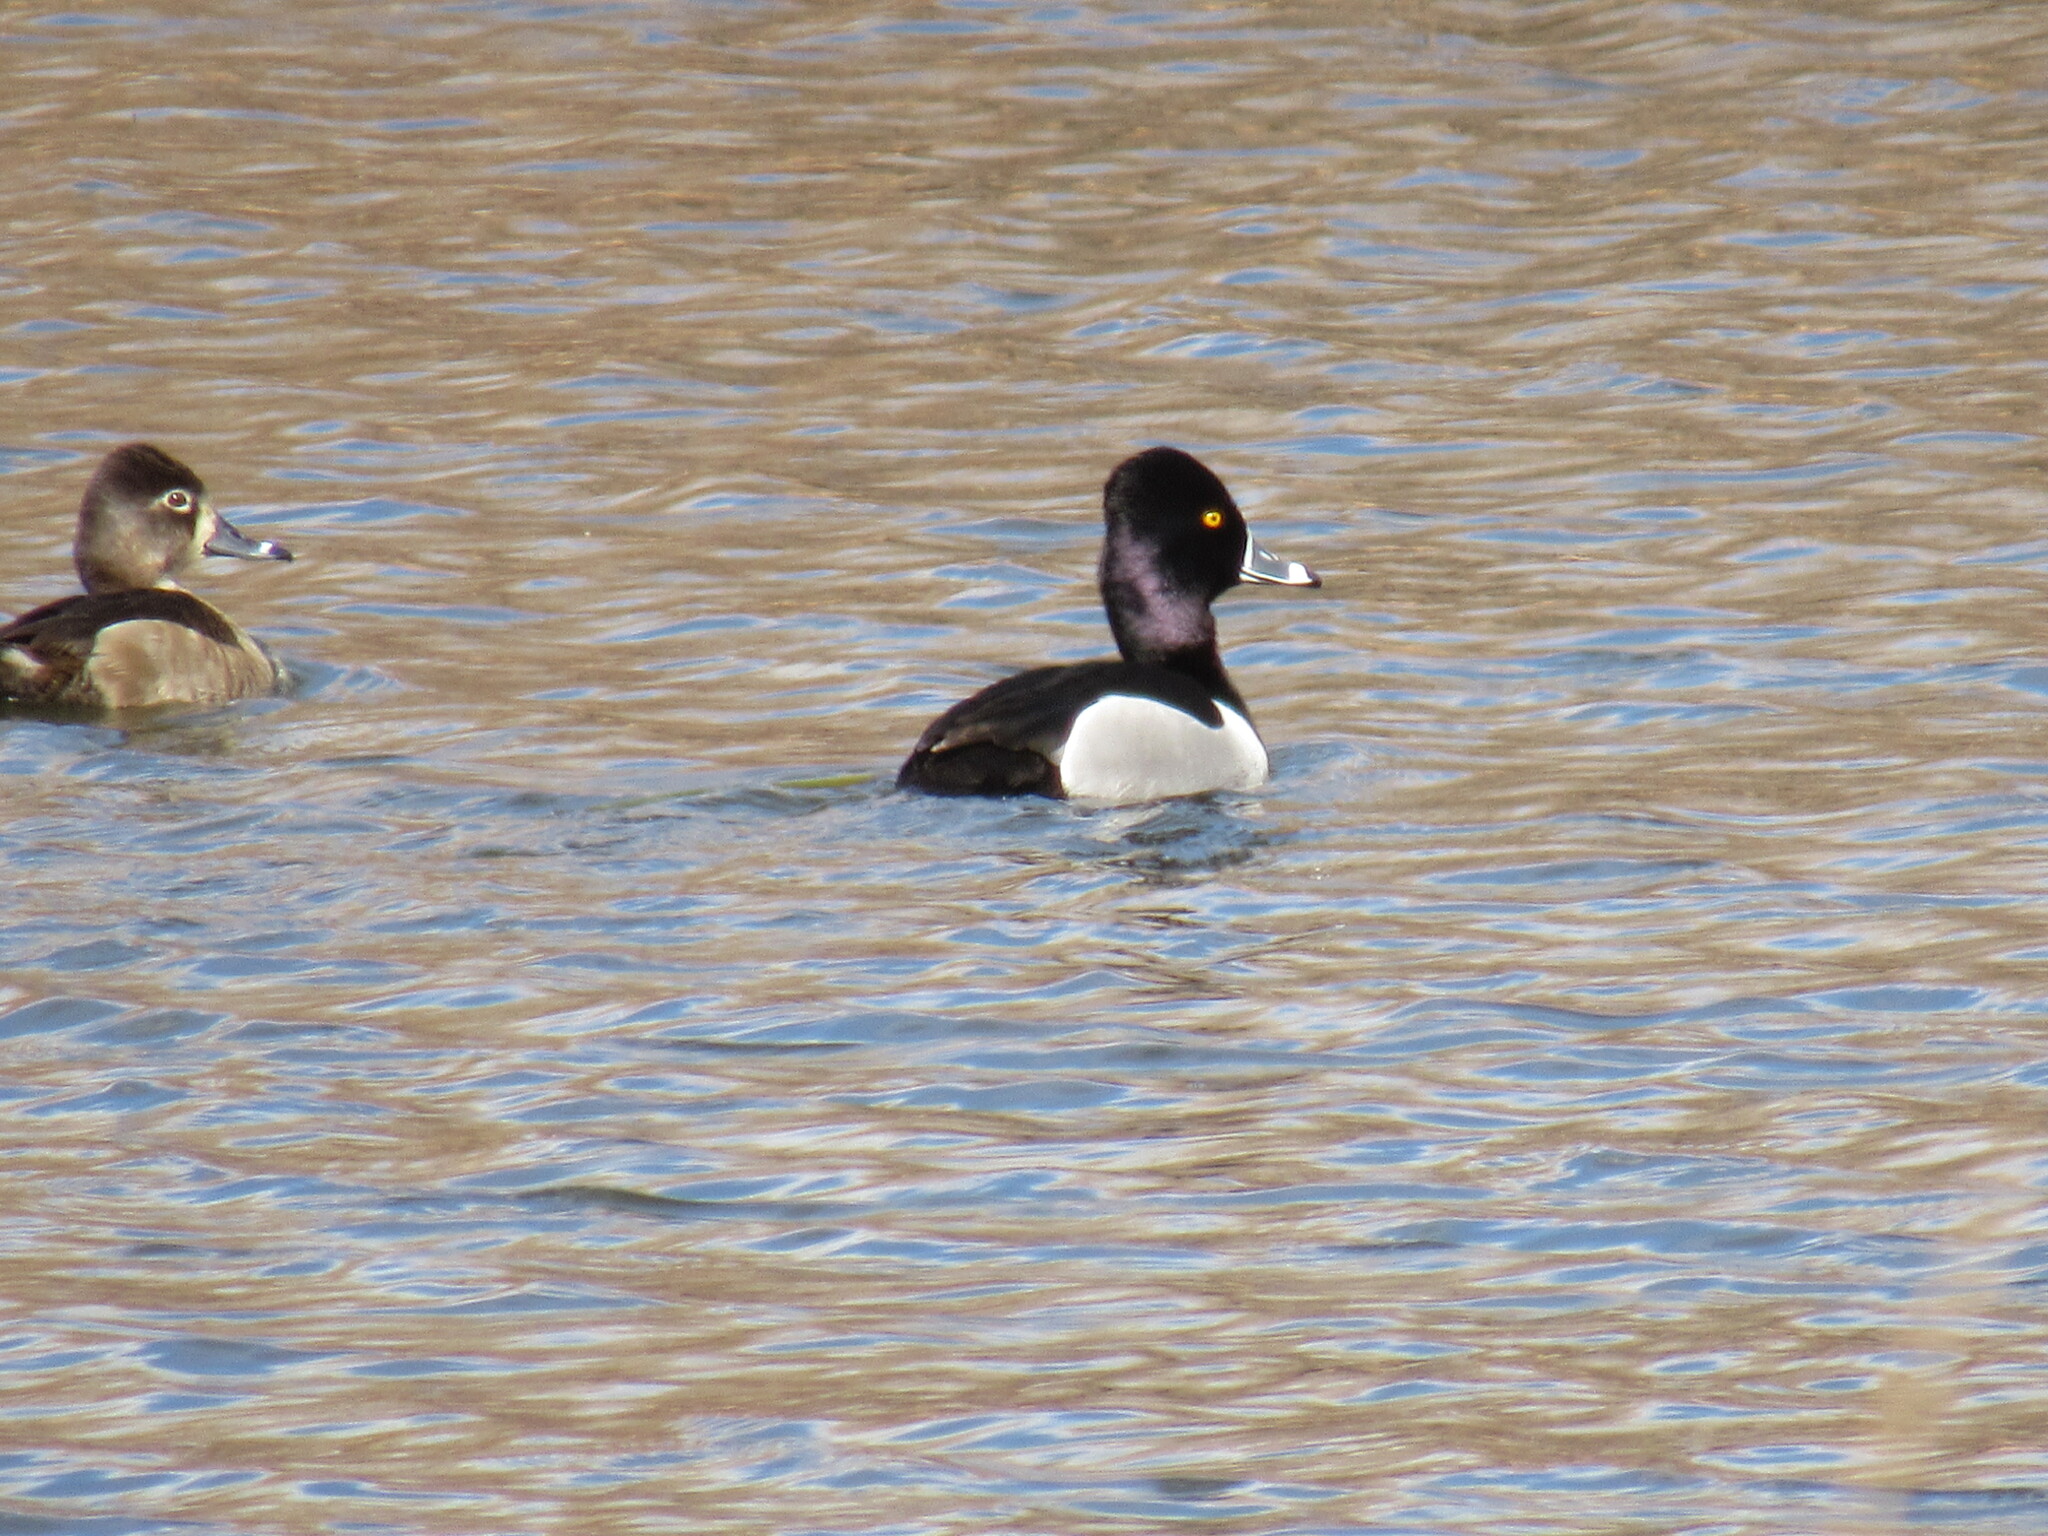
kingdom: Animalia
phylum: Chordata
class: Aves
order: Anseriformes
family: Anatidae
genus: Aythya
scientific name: Aythya collaris
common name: Ring-necked duck
